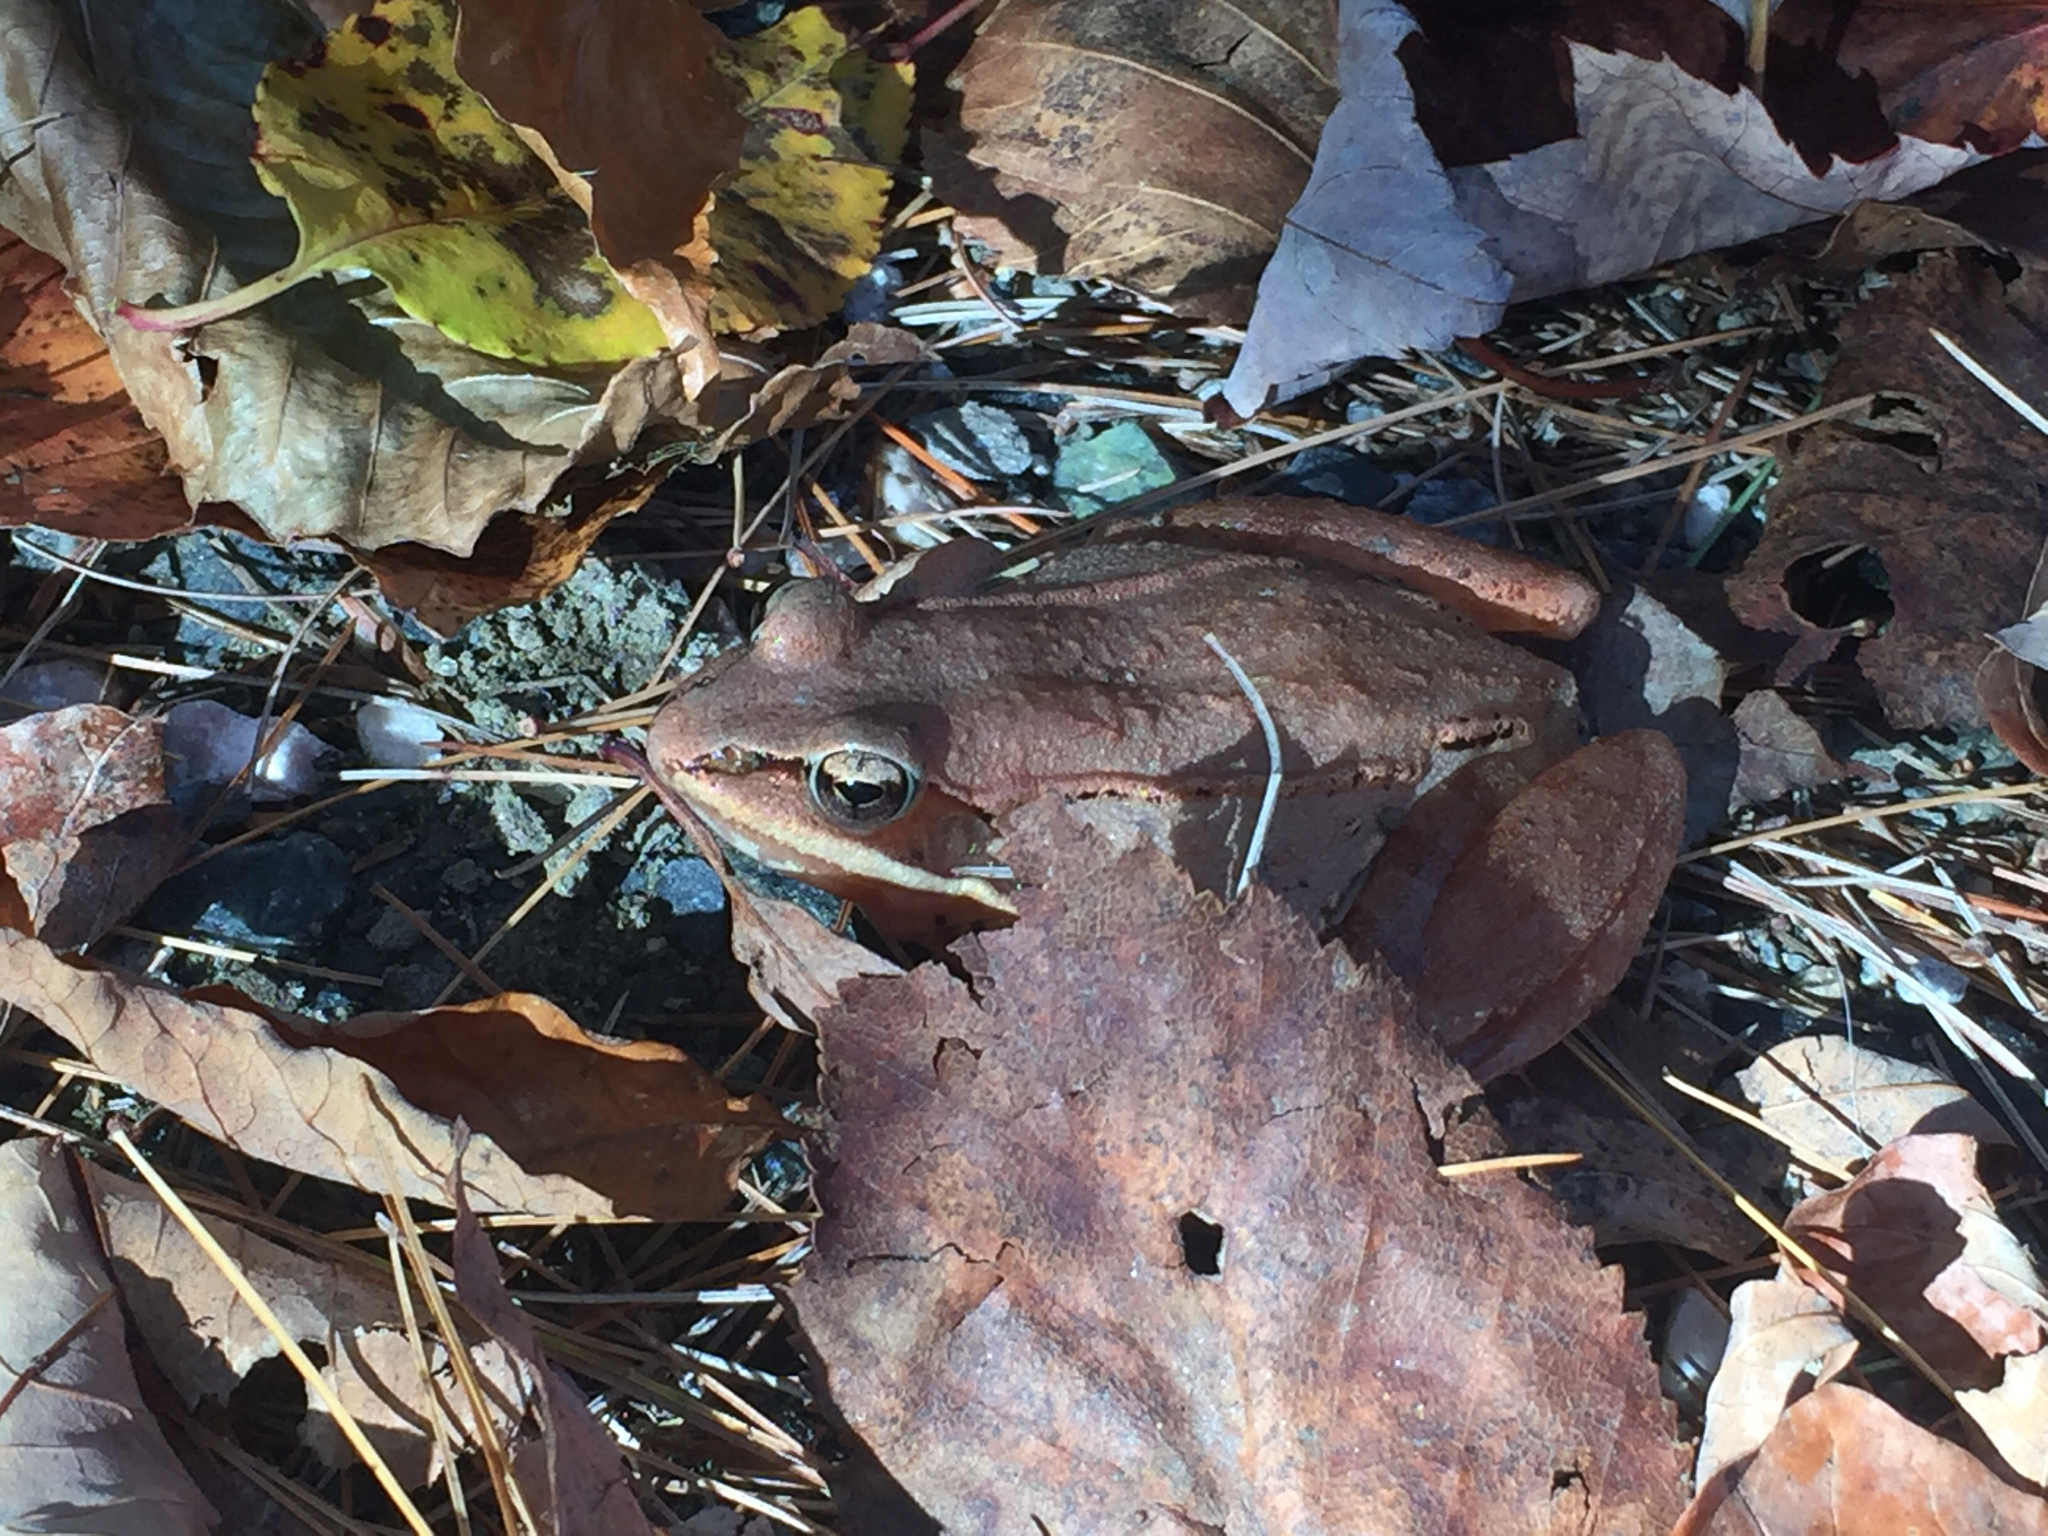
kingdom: Animalia
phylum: Chordata
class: Amphibia
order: Anura
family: Ranidae
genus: Lithobates
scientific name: Lithobates sylvaticus
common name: Wood frog
